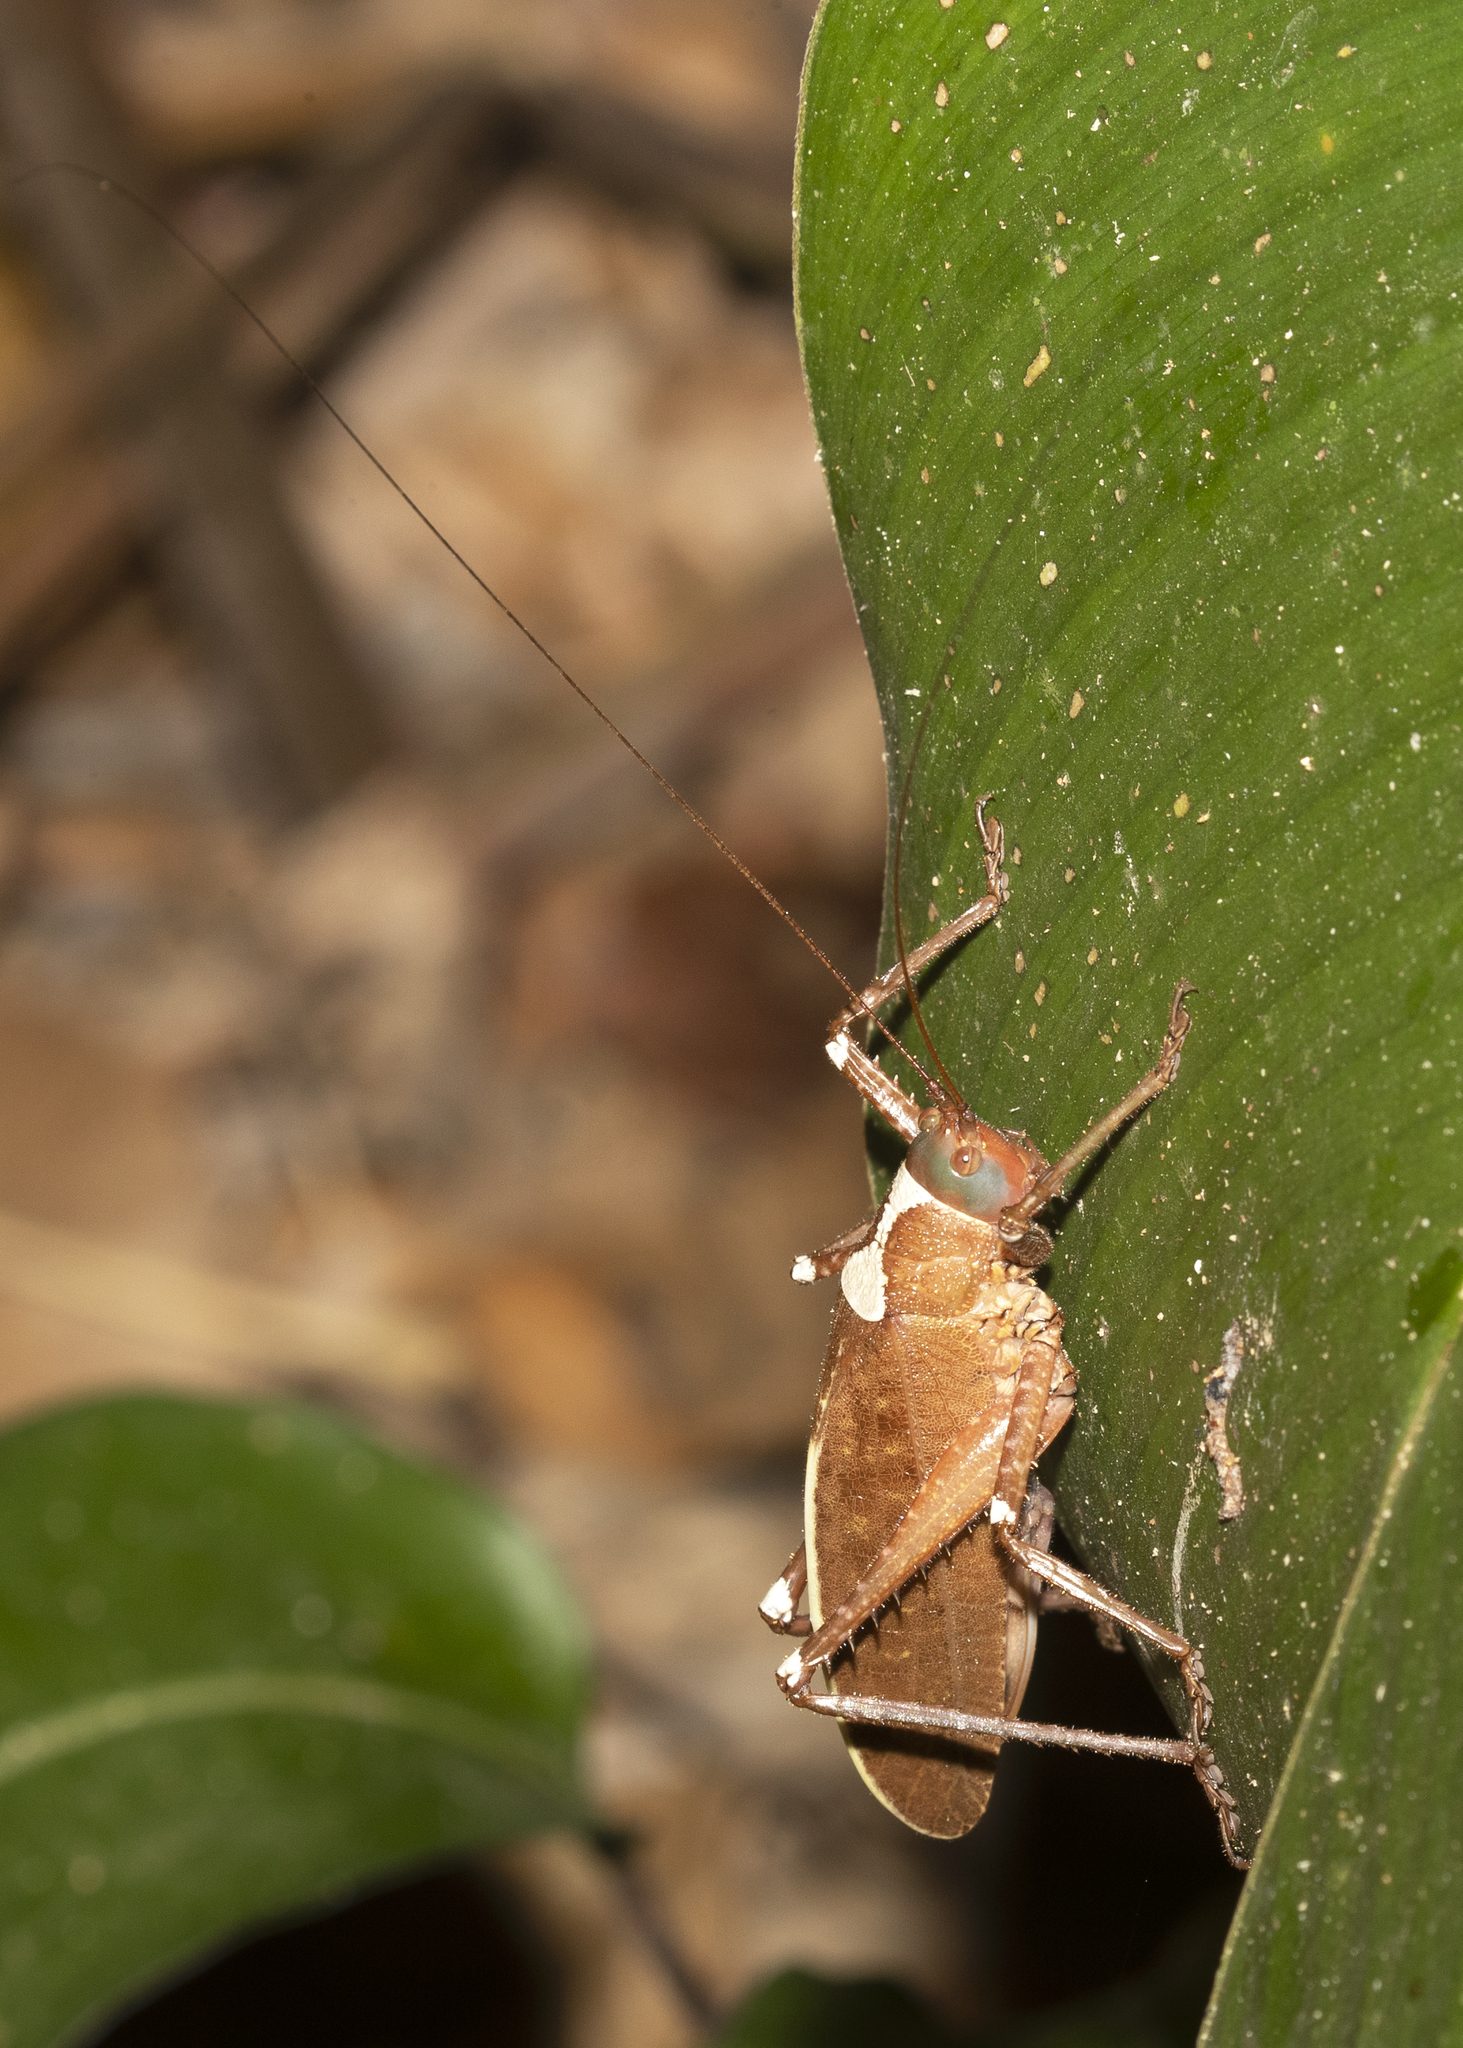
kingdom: Animalia
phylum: Arthropoda
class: Insecta
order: Orthoptera
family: Tettigoniidae
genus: Xiphophyllum
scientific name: Xiphophyllum limbatum
